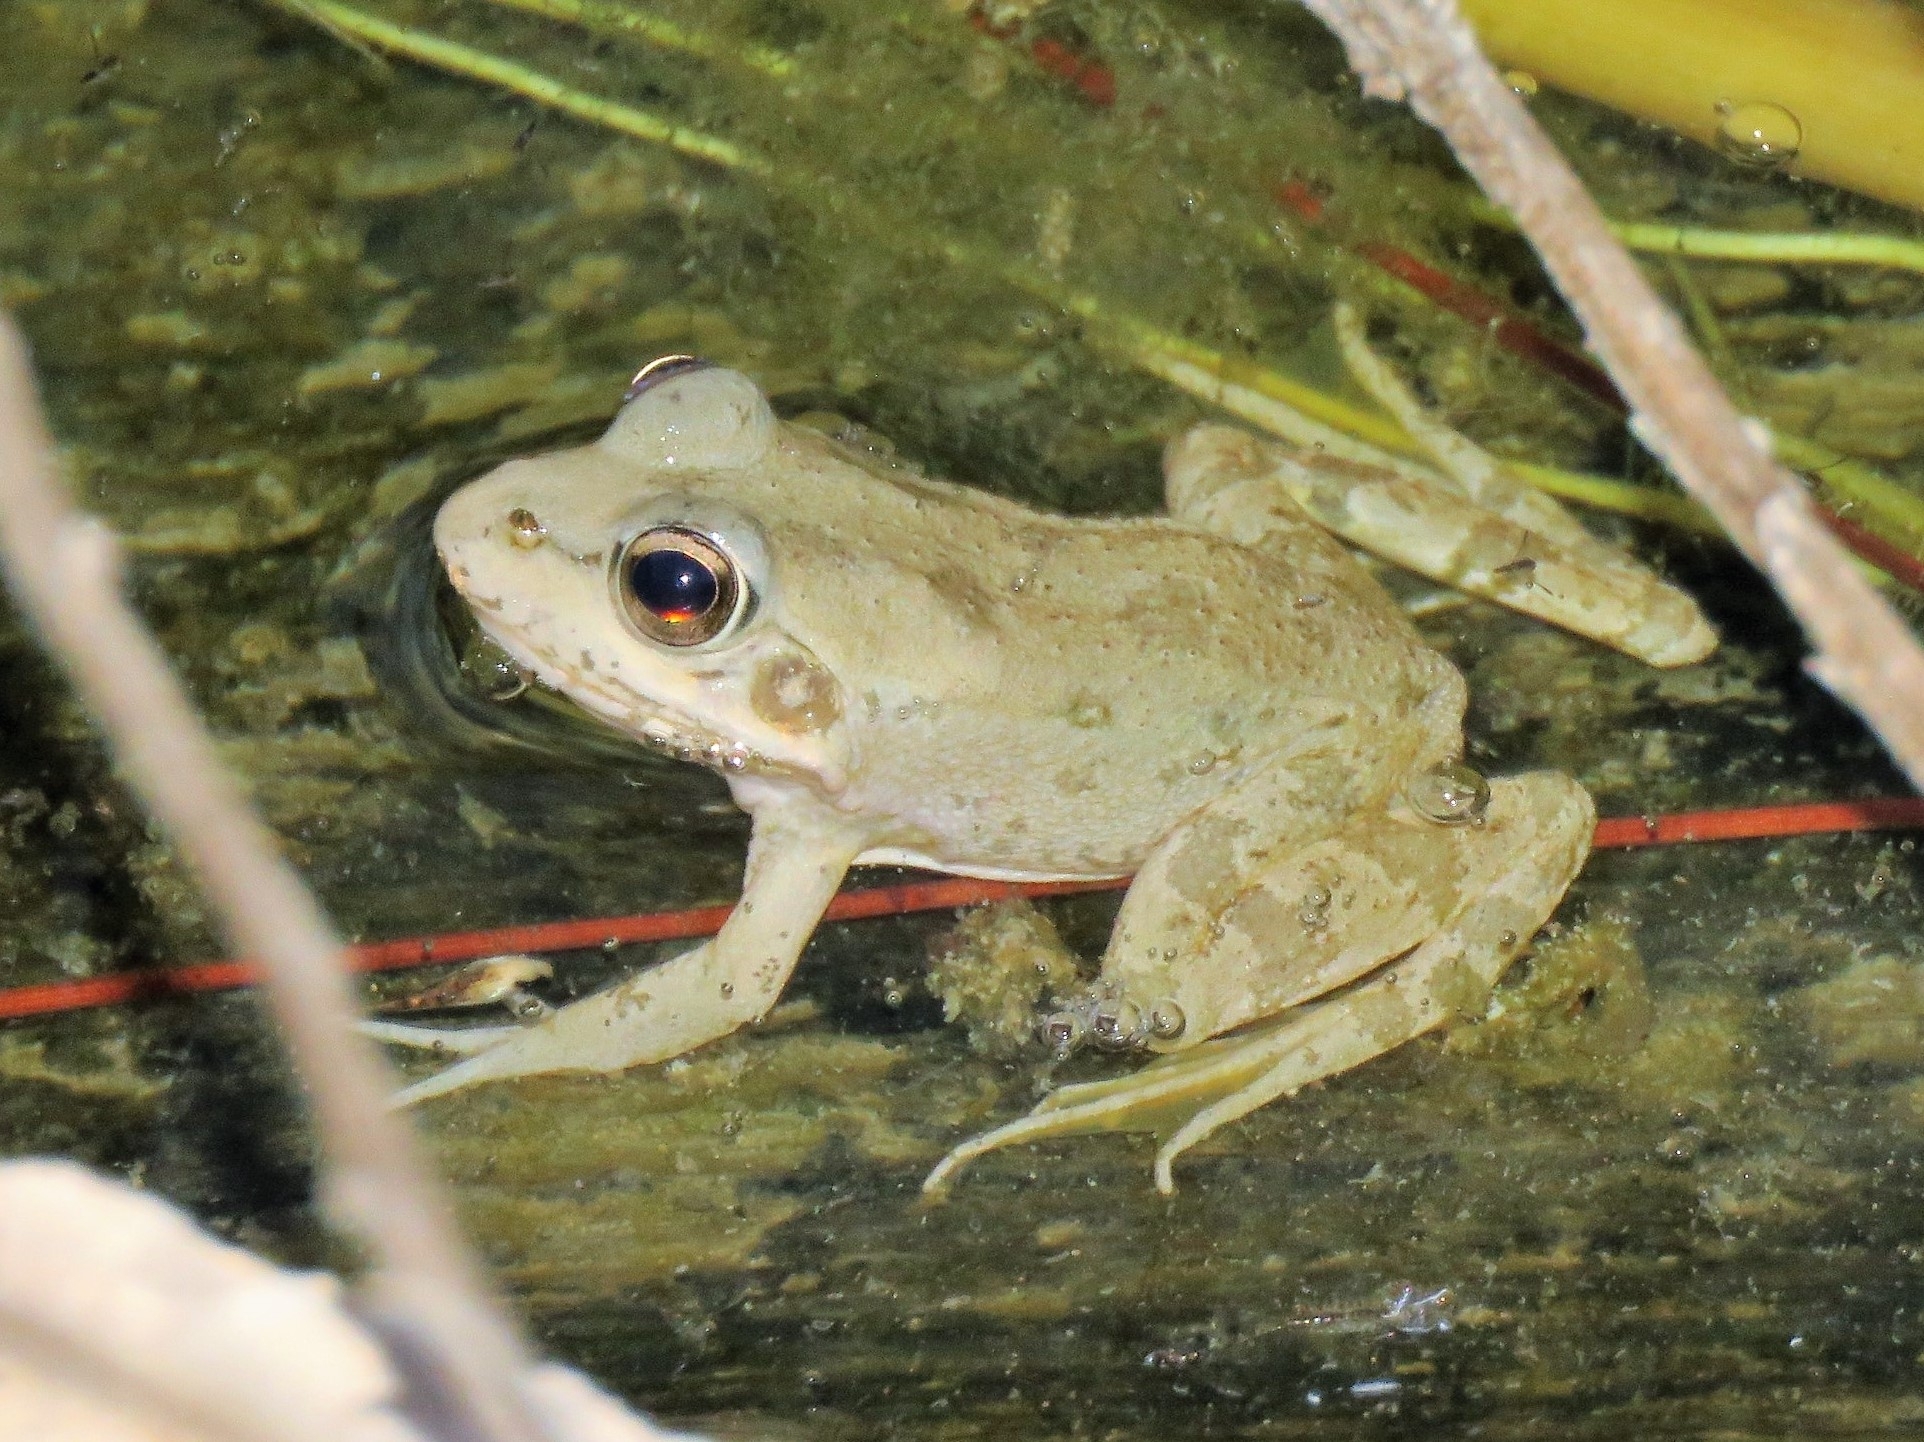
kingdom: Animalia
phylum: Chordata
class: Amphibia
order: Anura
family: Ranidae
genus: Pelophylax
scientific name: Pelophylax perezi
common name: Perez's frog
